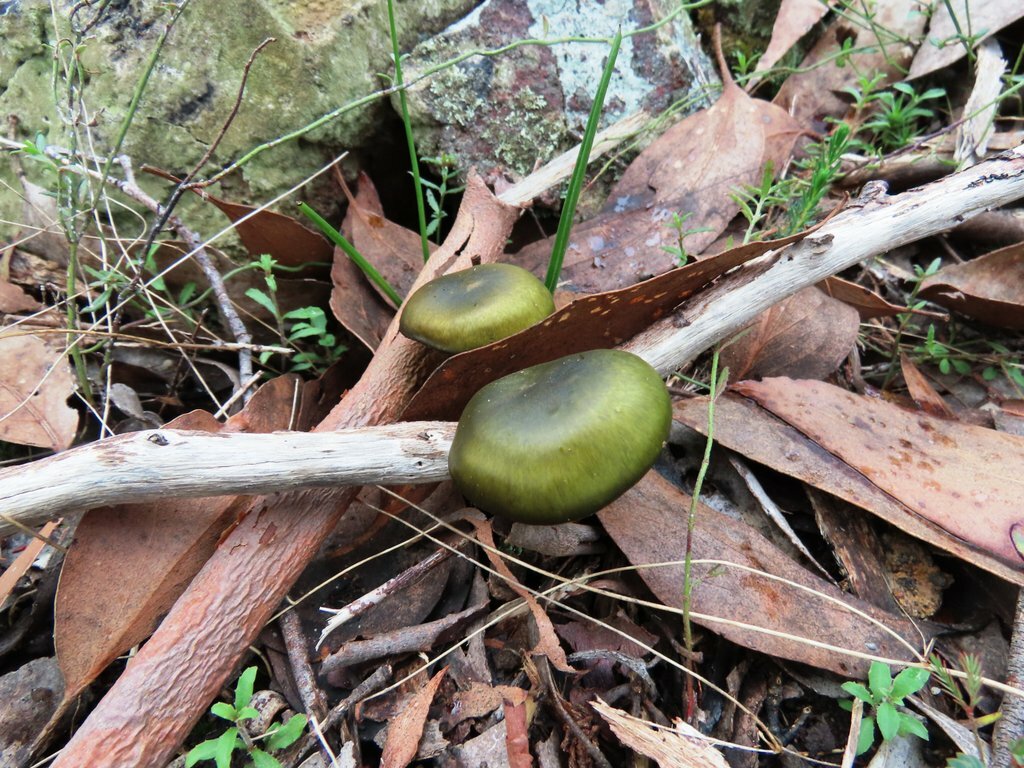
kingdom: Fungi
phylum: Basidiomycota
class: Agaricomycetes
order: Agaricales
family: Cortinariaceae
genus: Cortinarius
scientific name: Cortinarius austrovenetus
